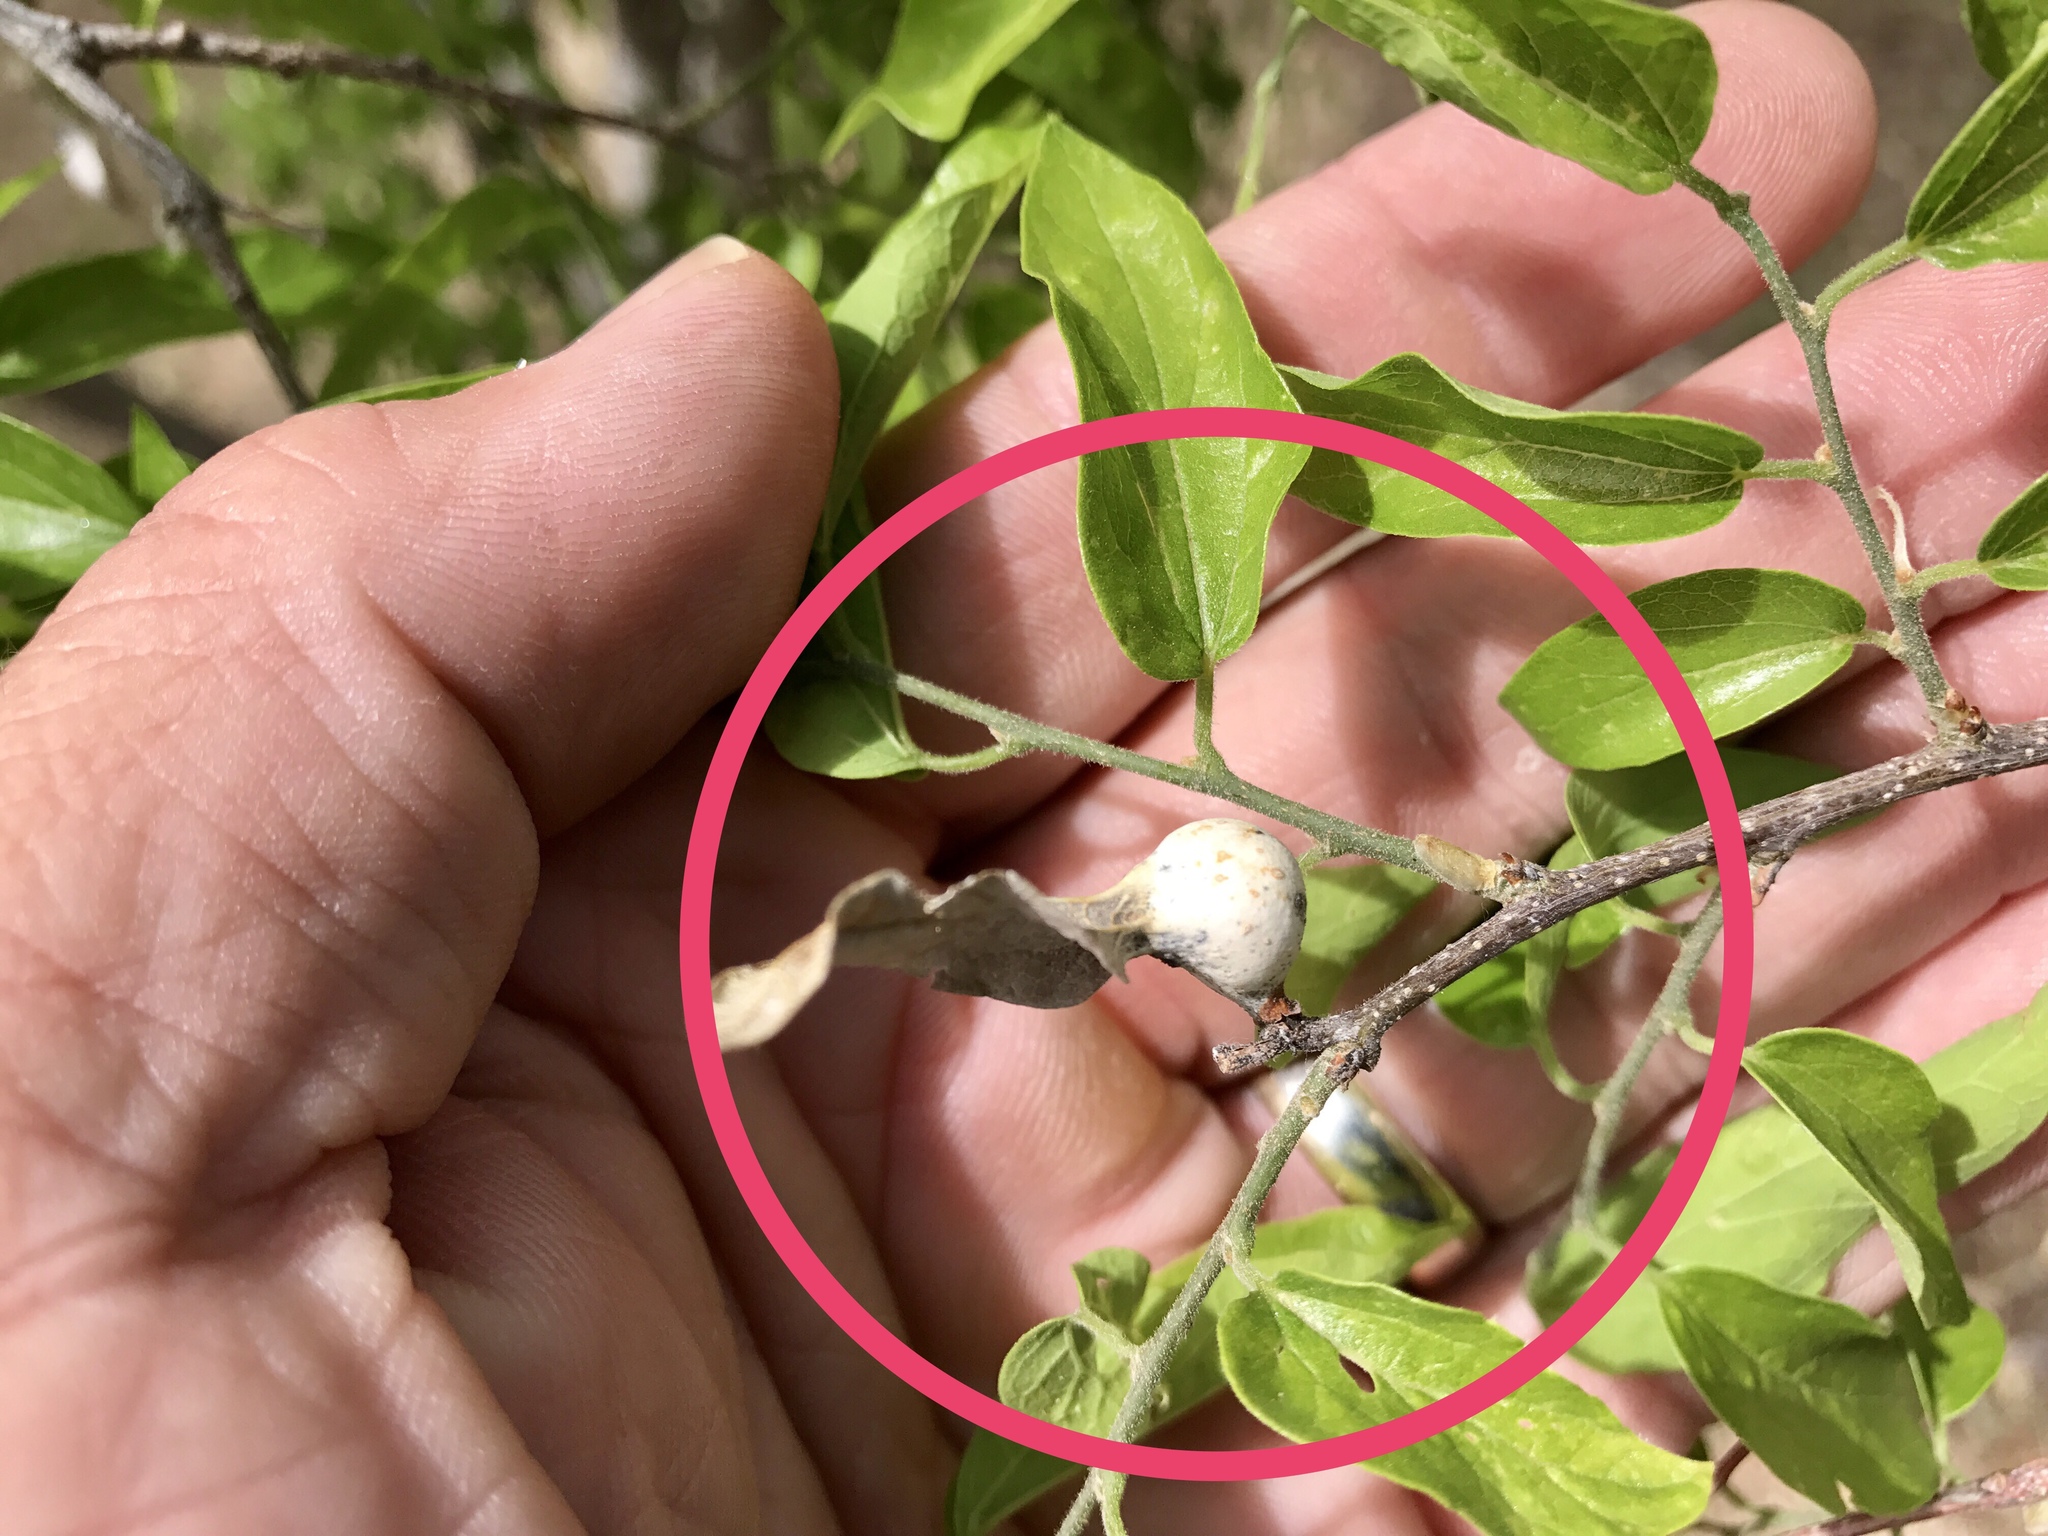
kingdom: Animalia
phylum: Arthropoda
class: Insecta
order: Hemiptera
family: Aphalaridae
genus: Pachypsylla
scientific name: Pachypsylla venusta
